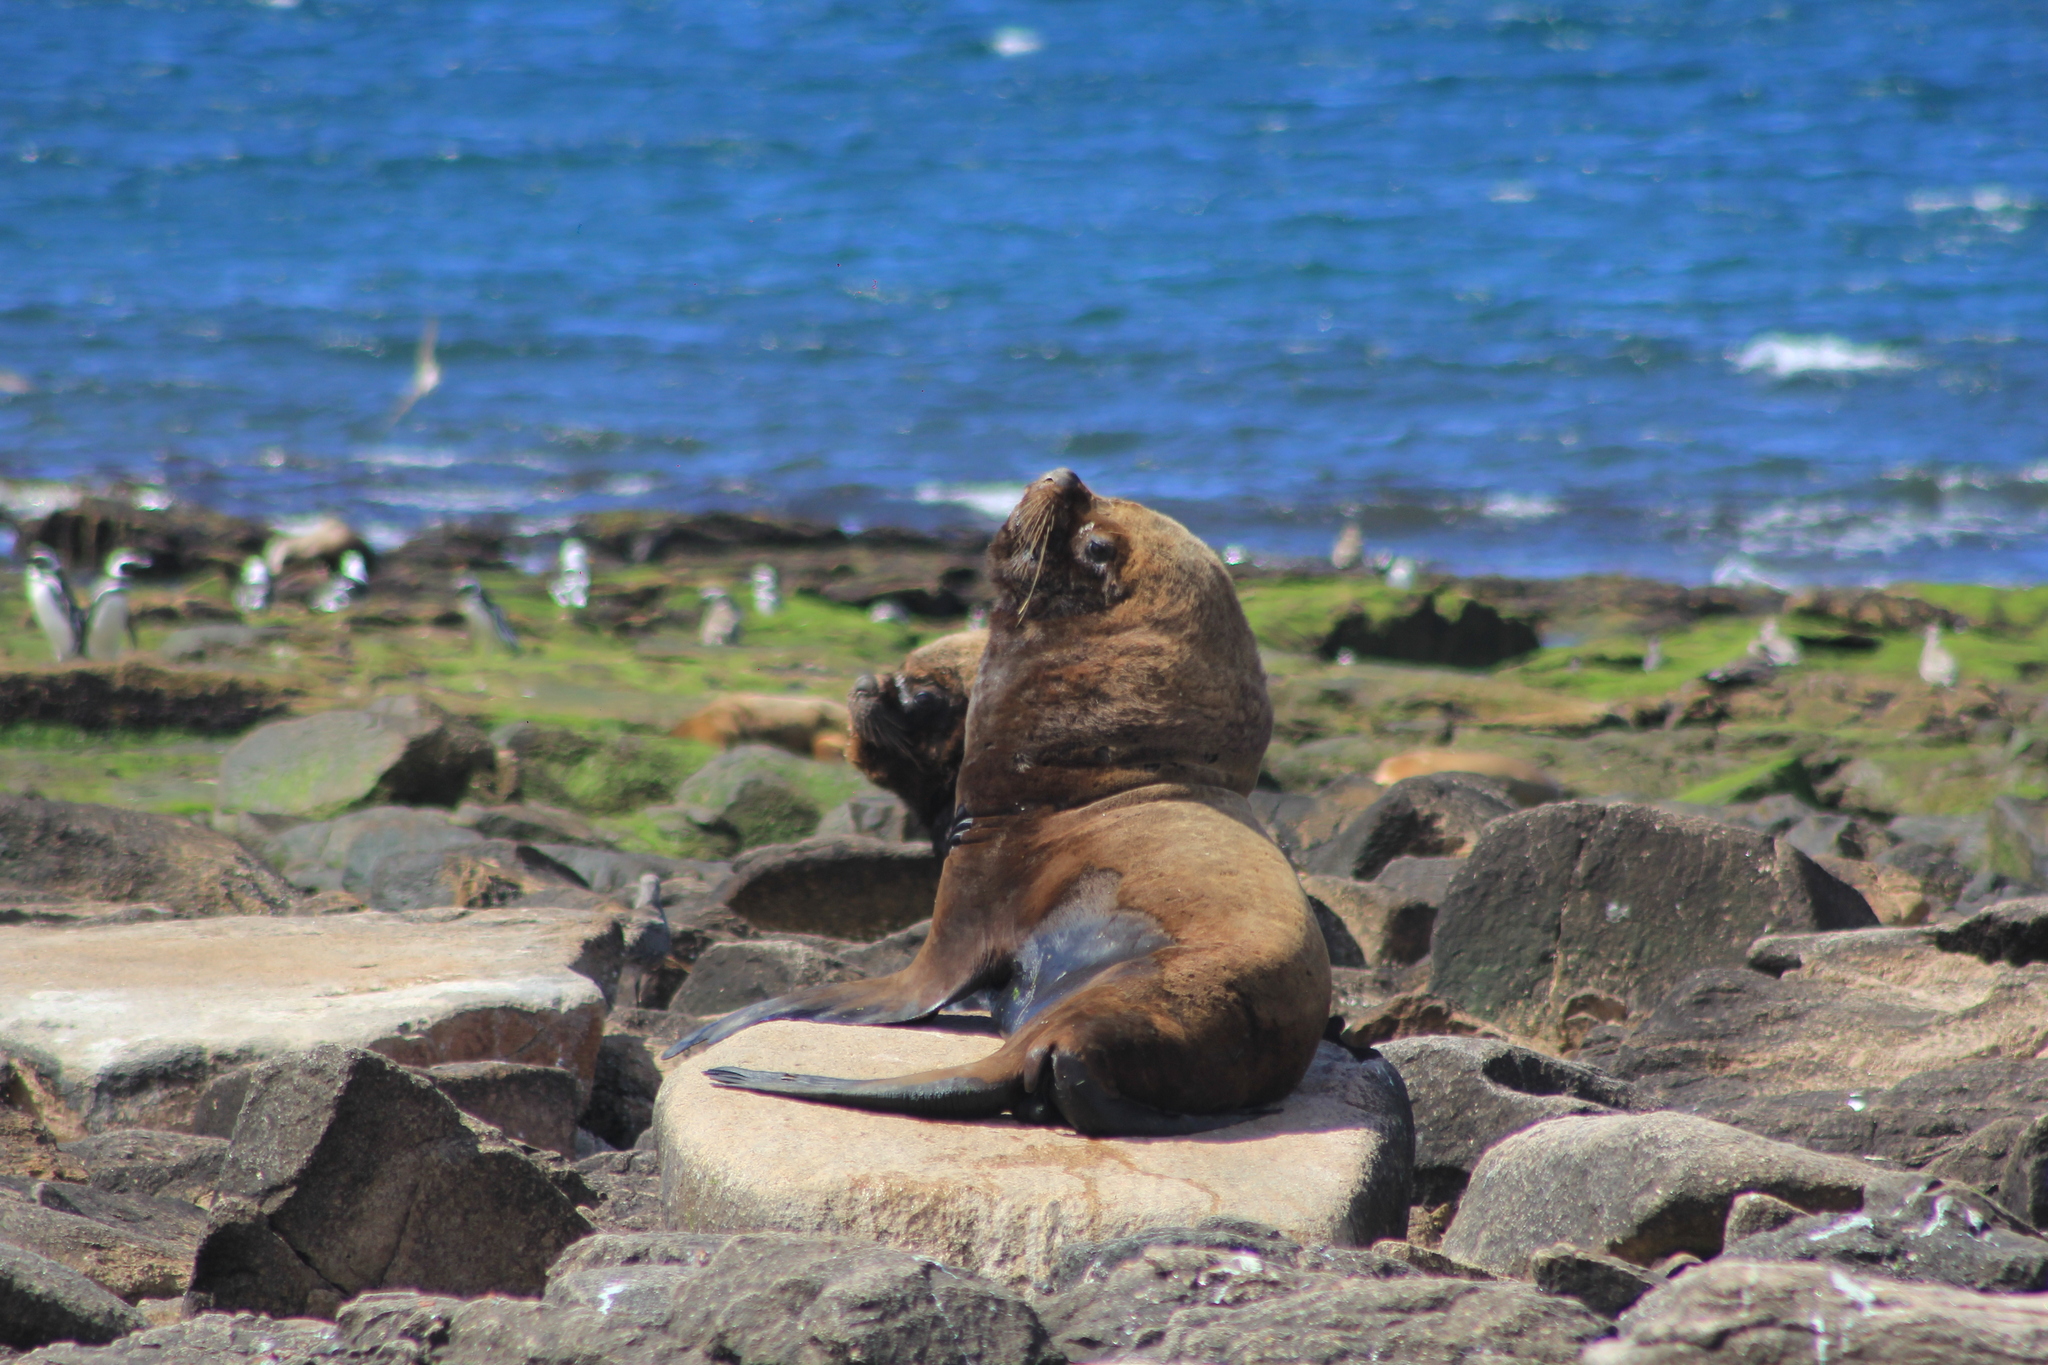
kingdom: Animalia
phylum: Chordata
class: Mammalia
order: Carnivora
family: Otariidae
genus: Otaria
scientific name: Otaria byronia
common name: South american sea lion
